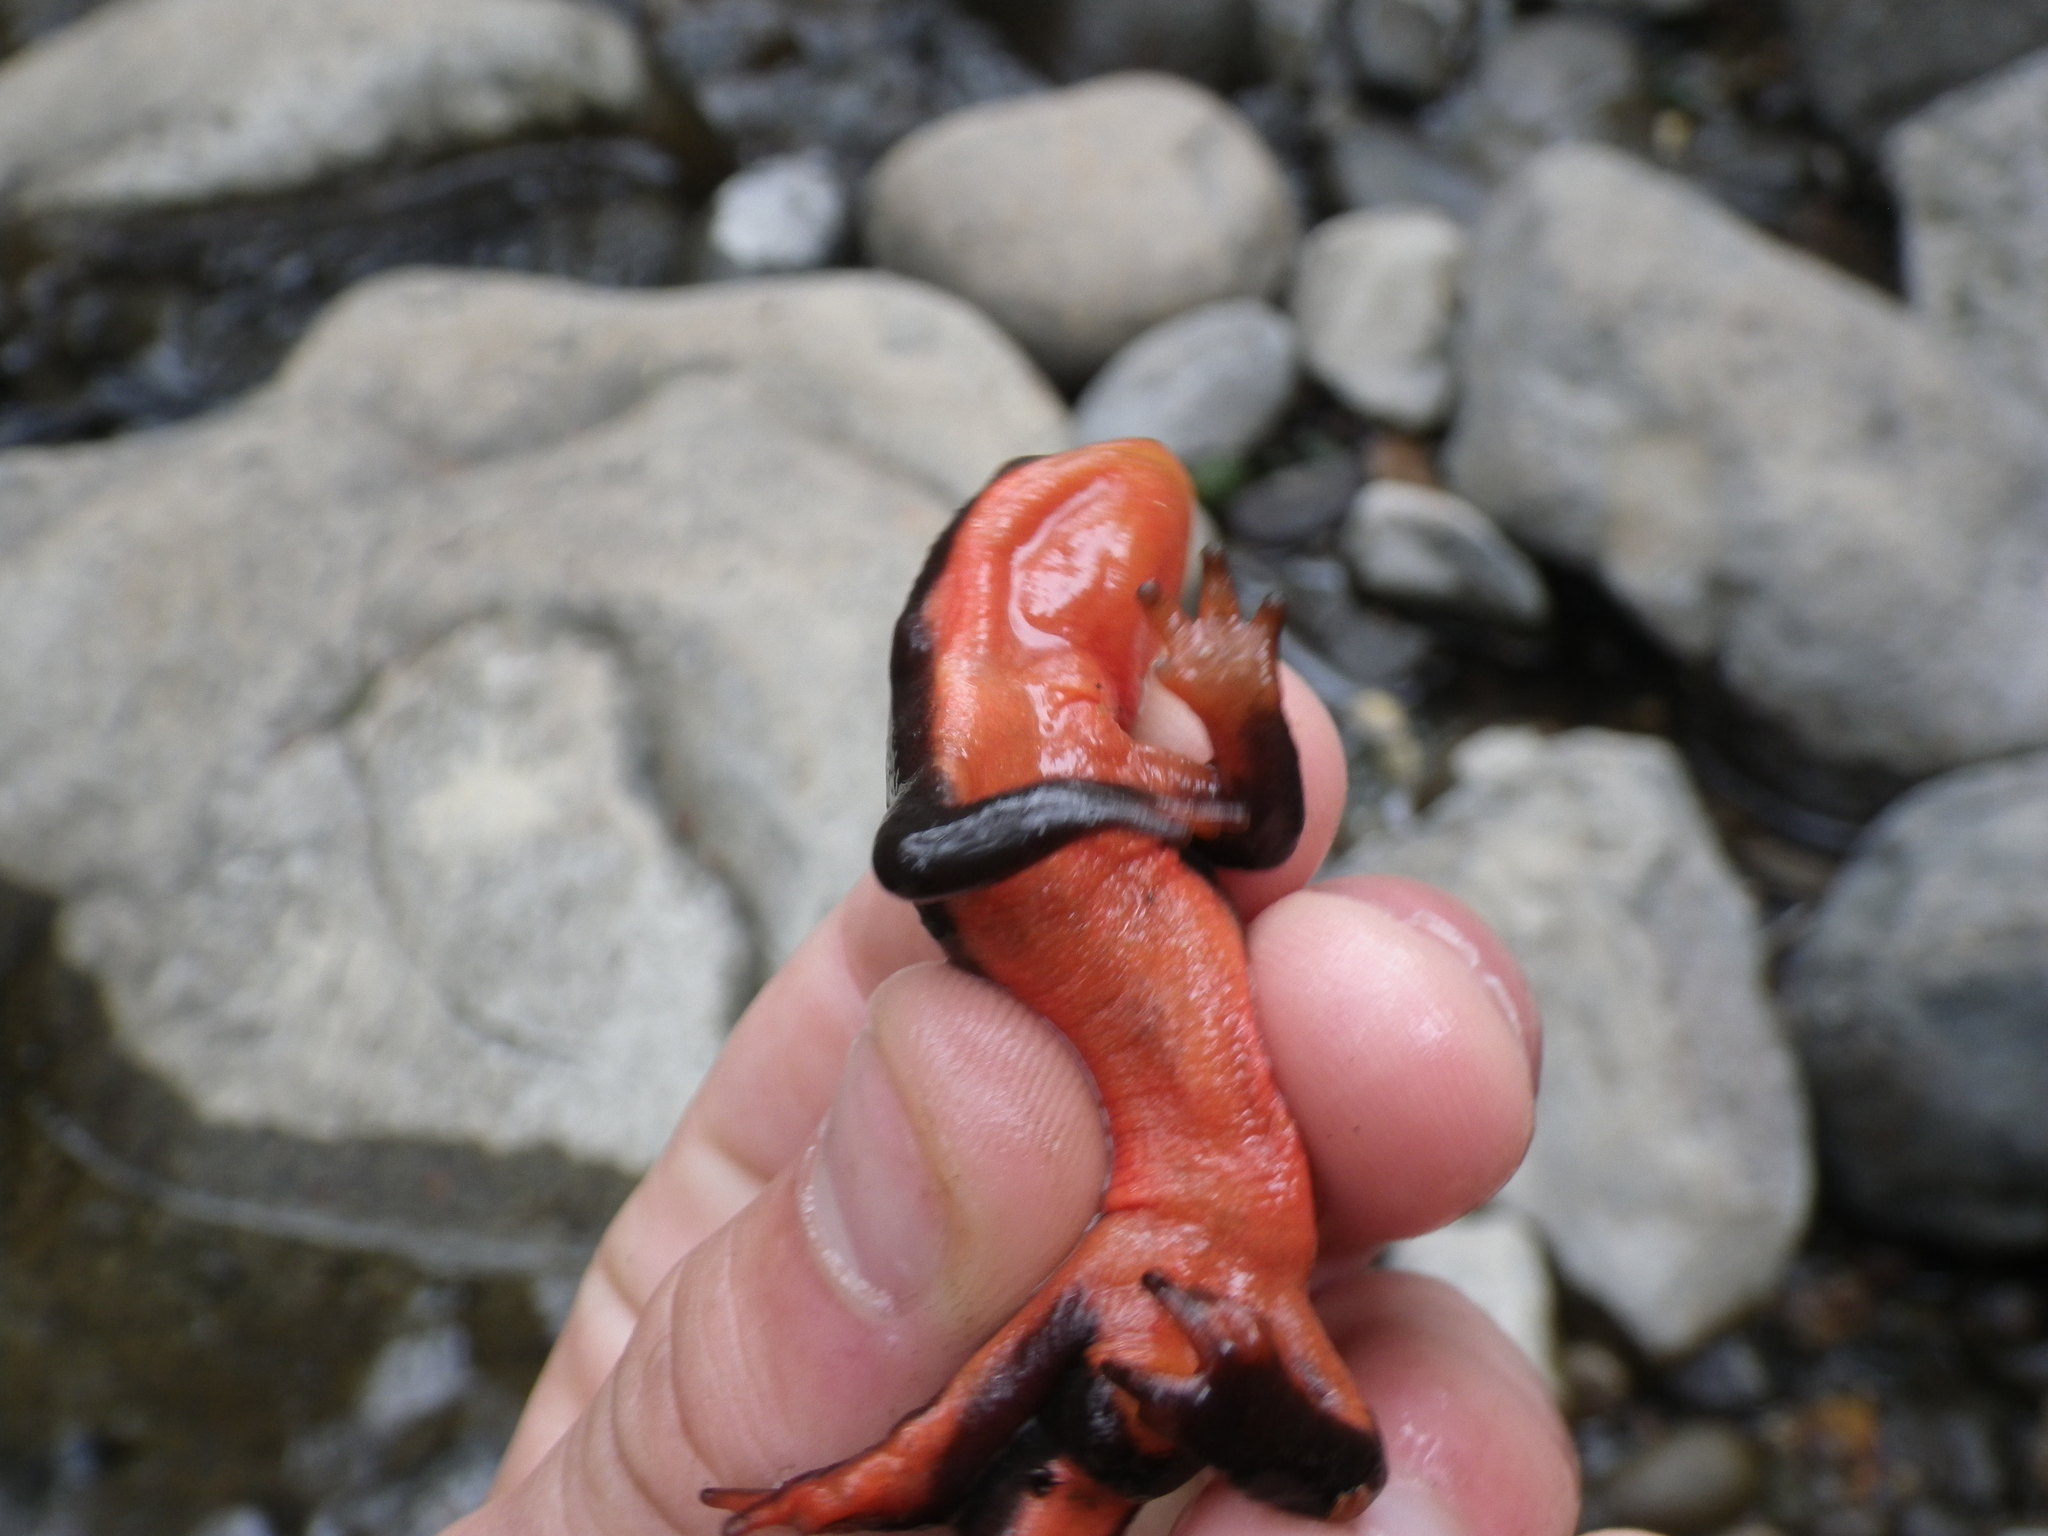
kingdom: Animalia
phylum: Chordata
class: Amphibia
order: Caudata
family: Salamandridae
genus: Taricha
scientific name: Taricha rivularis
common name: Red-bellied newt
